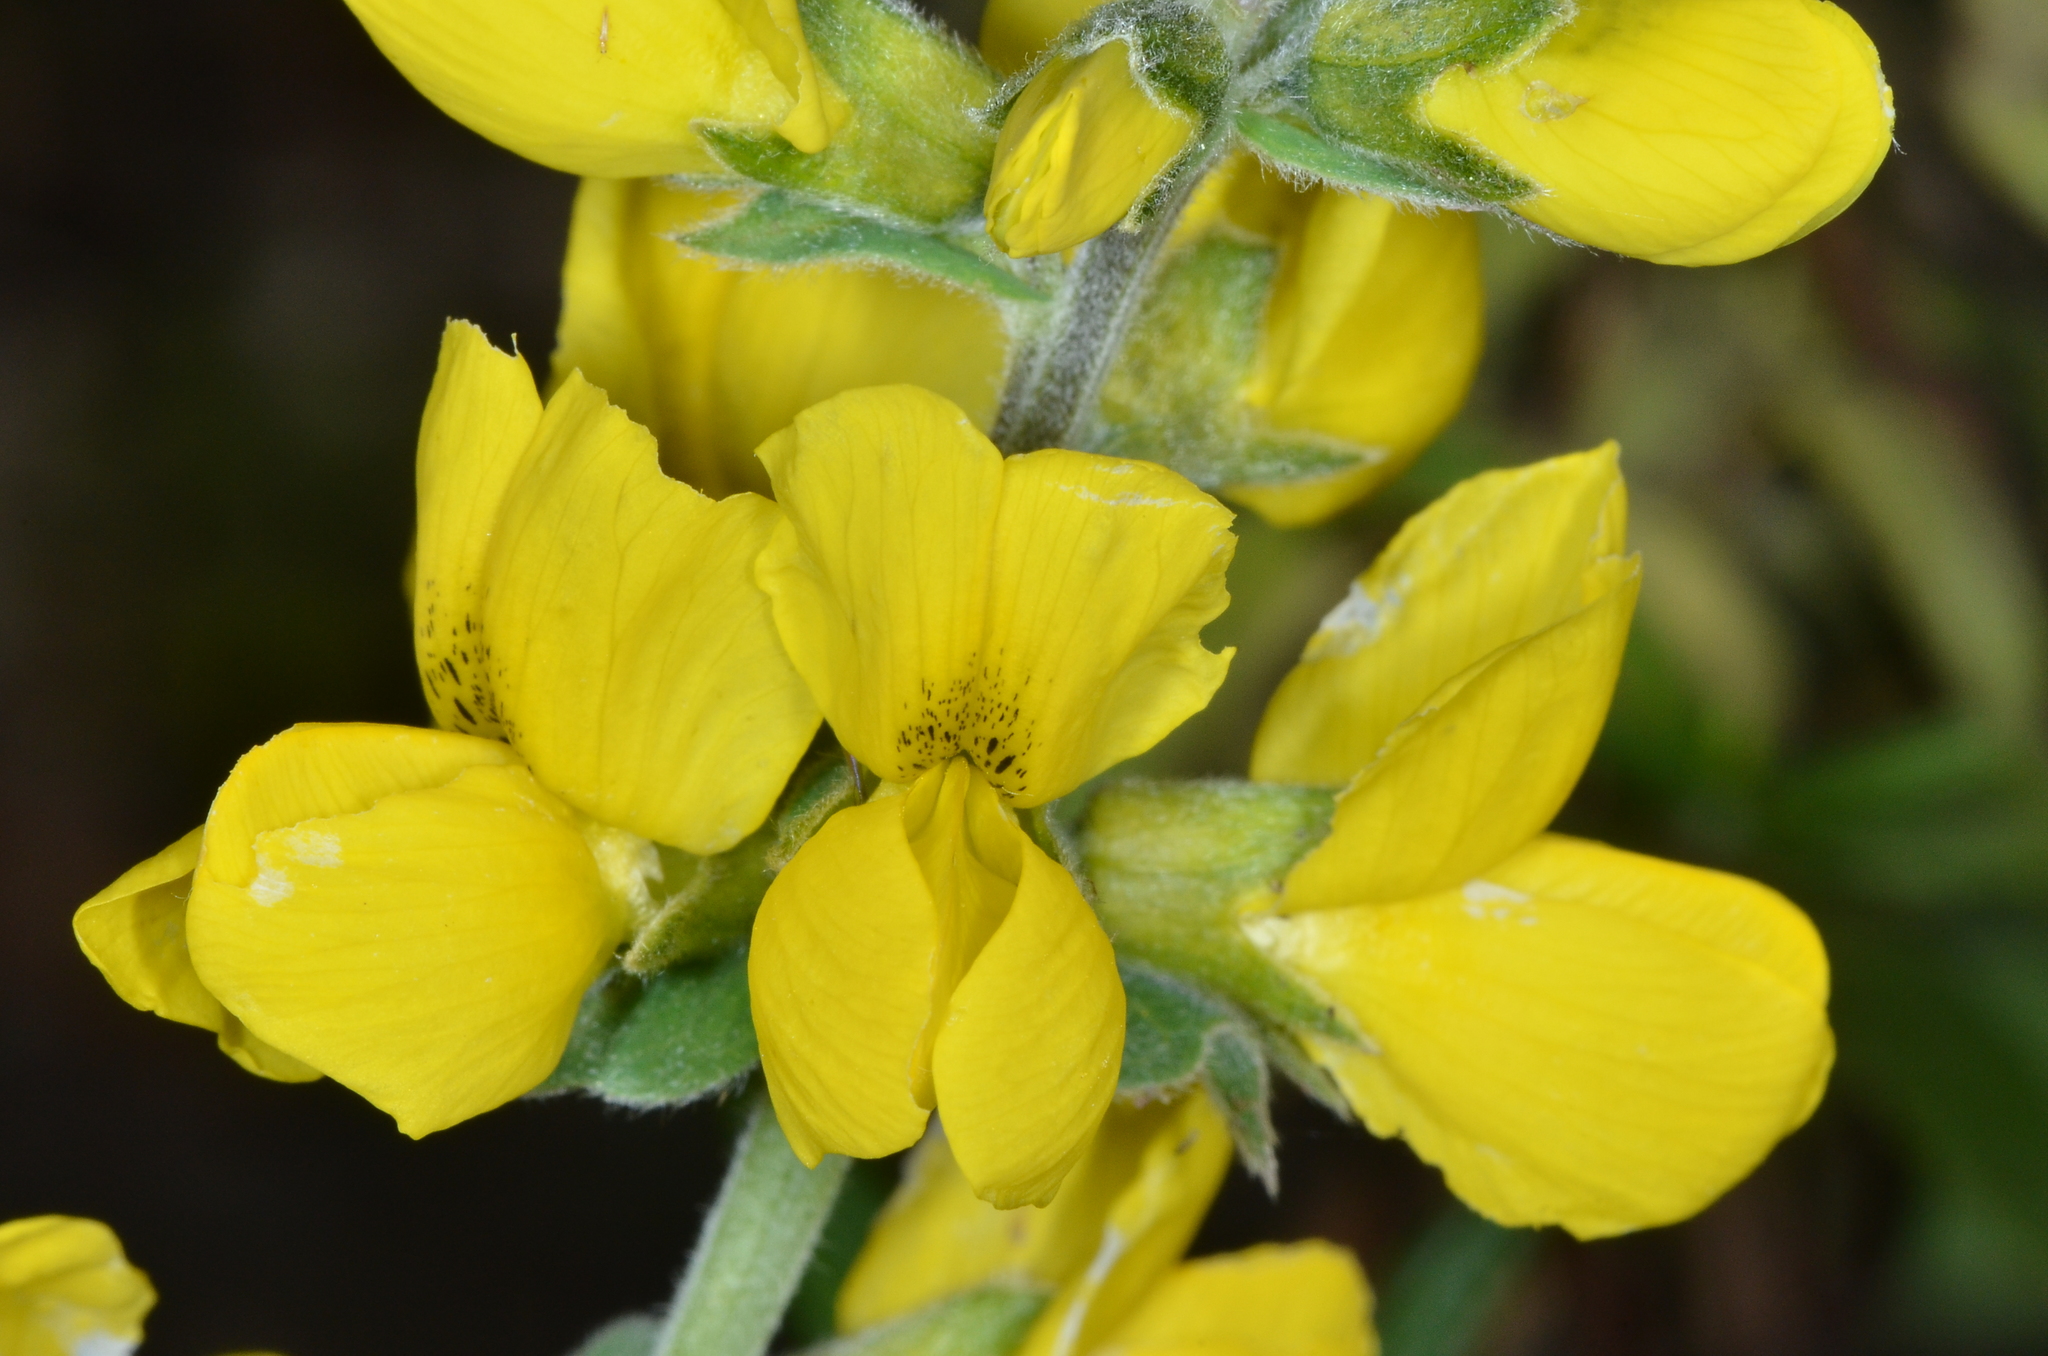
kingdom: Plantae
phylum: Tracheophyta
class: Magnoliopsida
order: Fabales
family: Fabaceae
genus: Thermopsis
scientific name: Thermopsis californica
